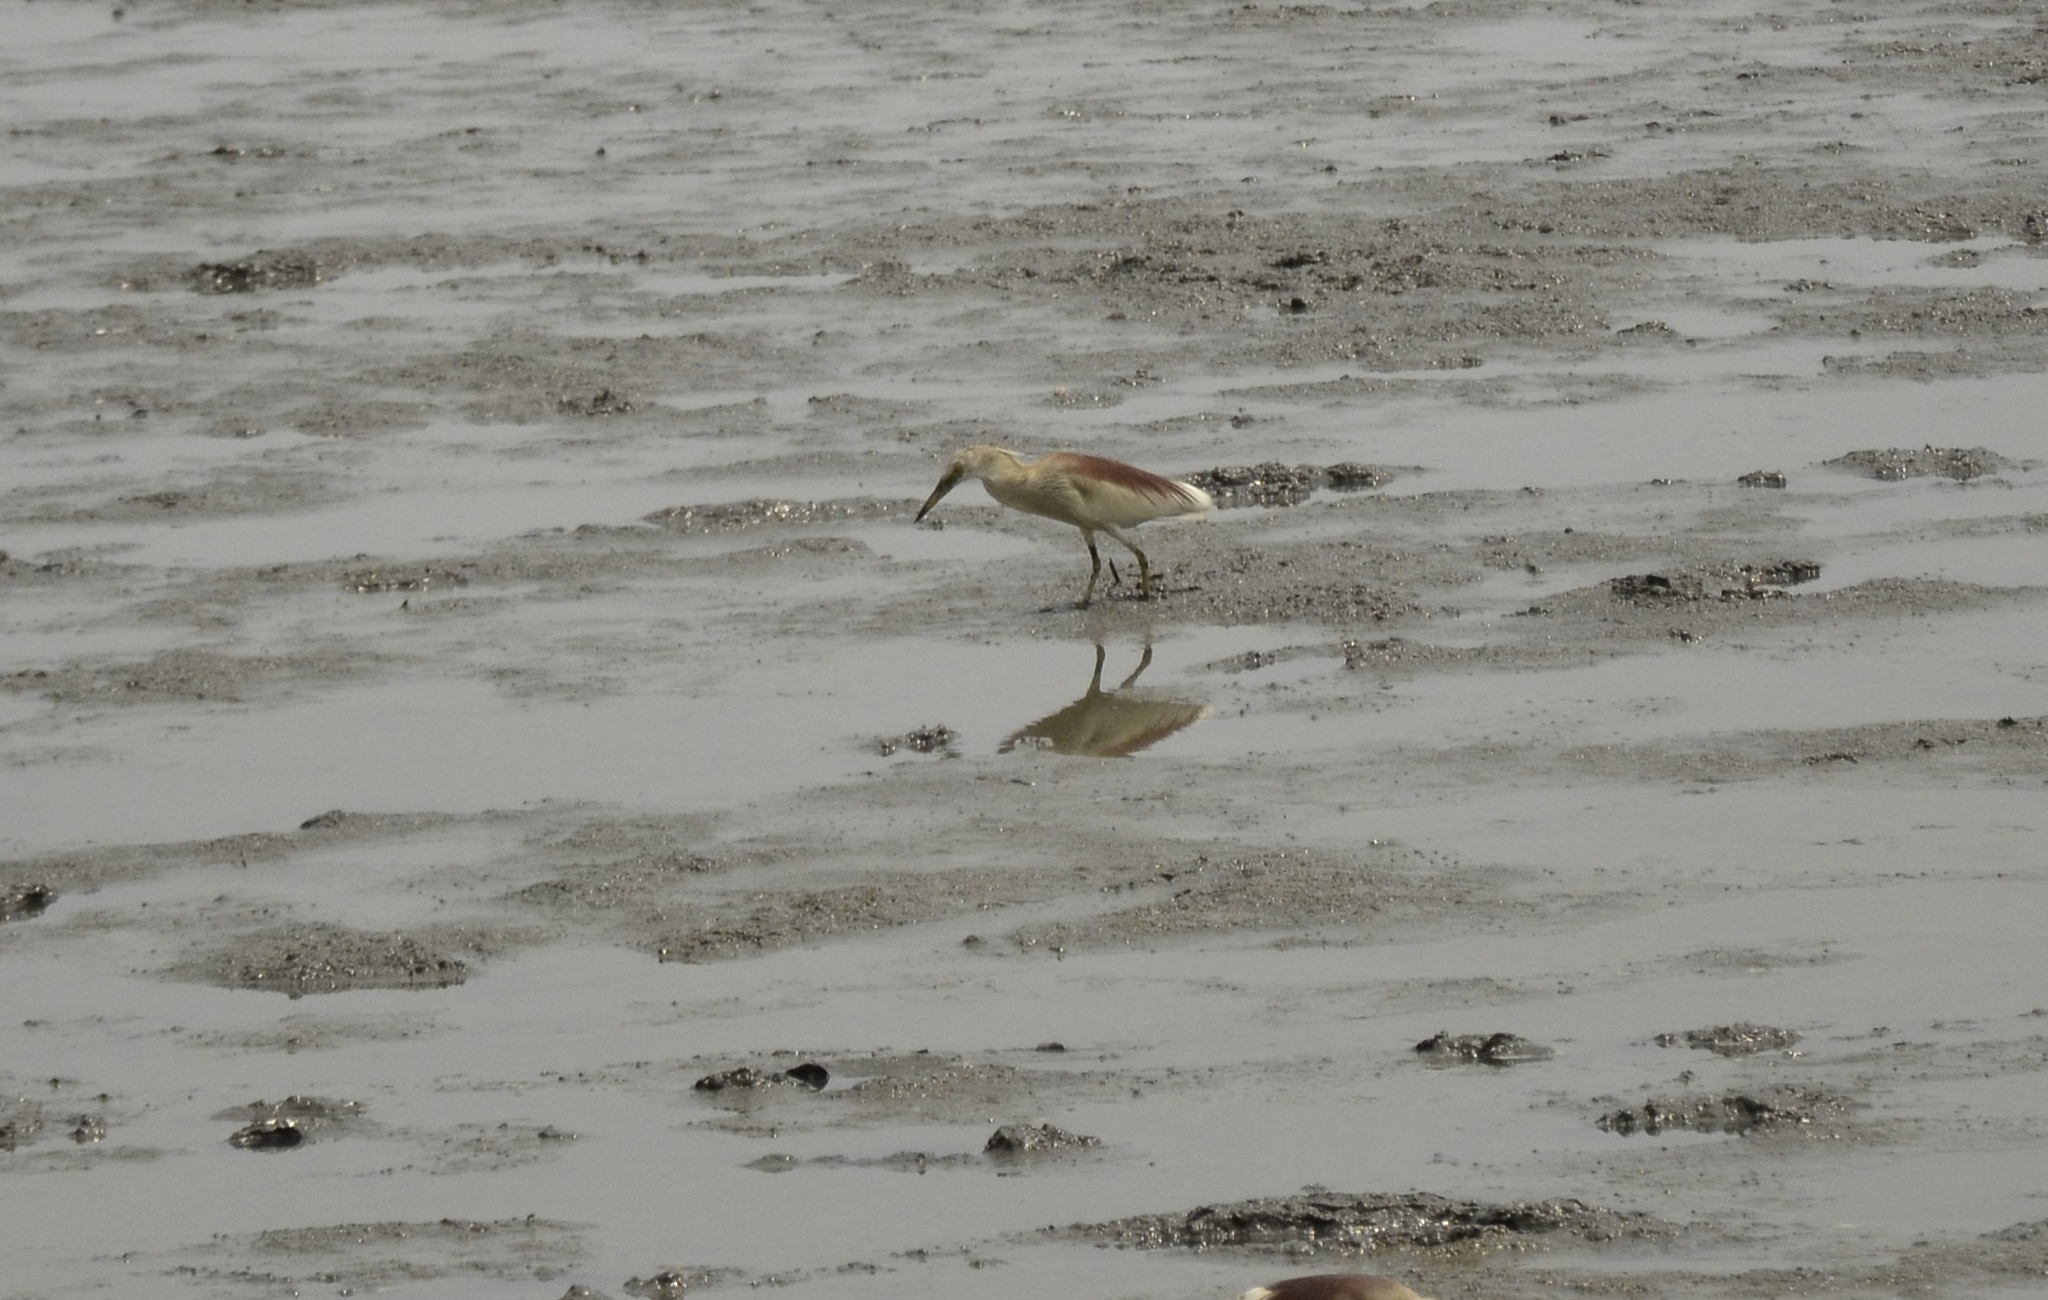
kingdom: Animalia
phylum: Chordata
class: Aves
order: Pelecaniformes
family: Ardeidae
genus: Ardeola
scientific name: Ardeola grayii
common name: Indian pond heron
